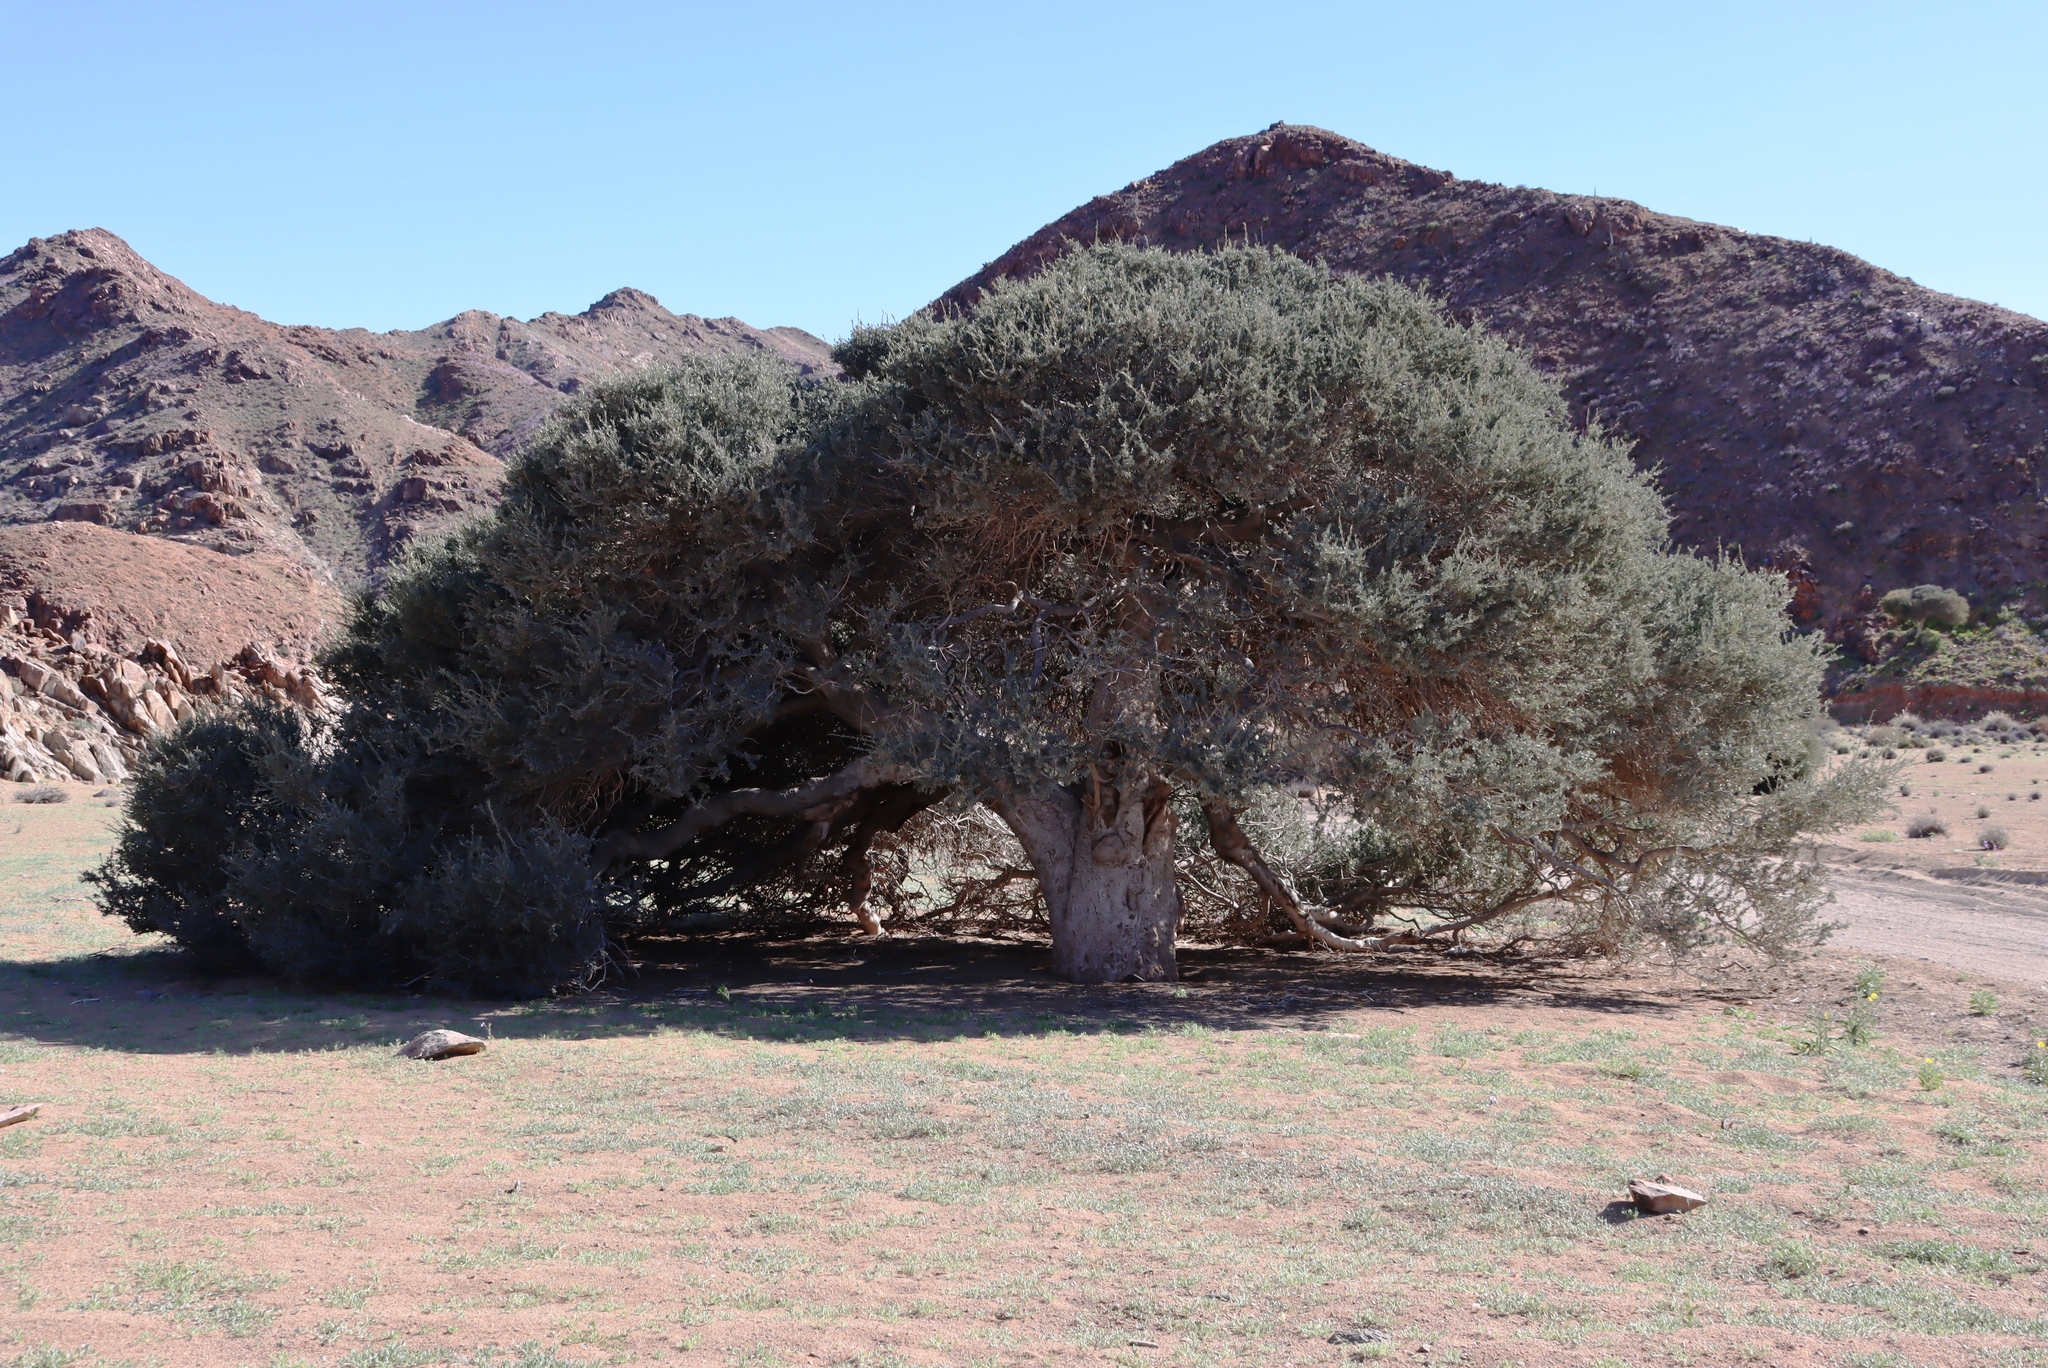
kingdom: Plantae
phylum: Tracheophyta
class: Magnoliopsida
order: Brassicales
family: Capparaceae
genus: Boscia
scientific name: Boscia albitrunca
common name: Caper bush
